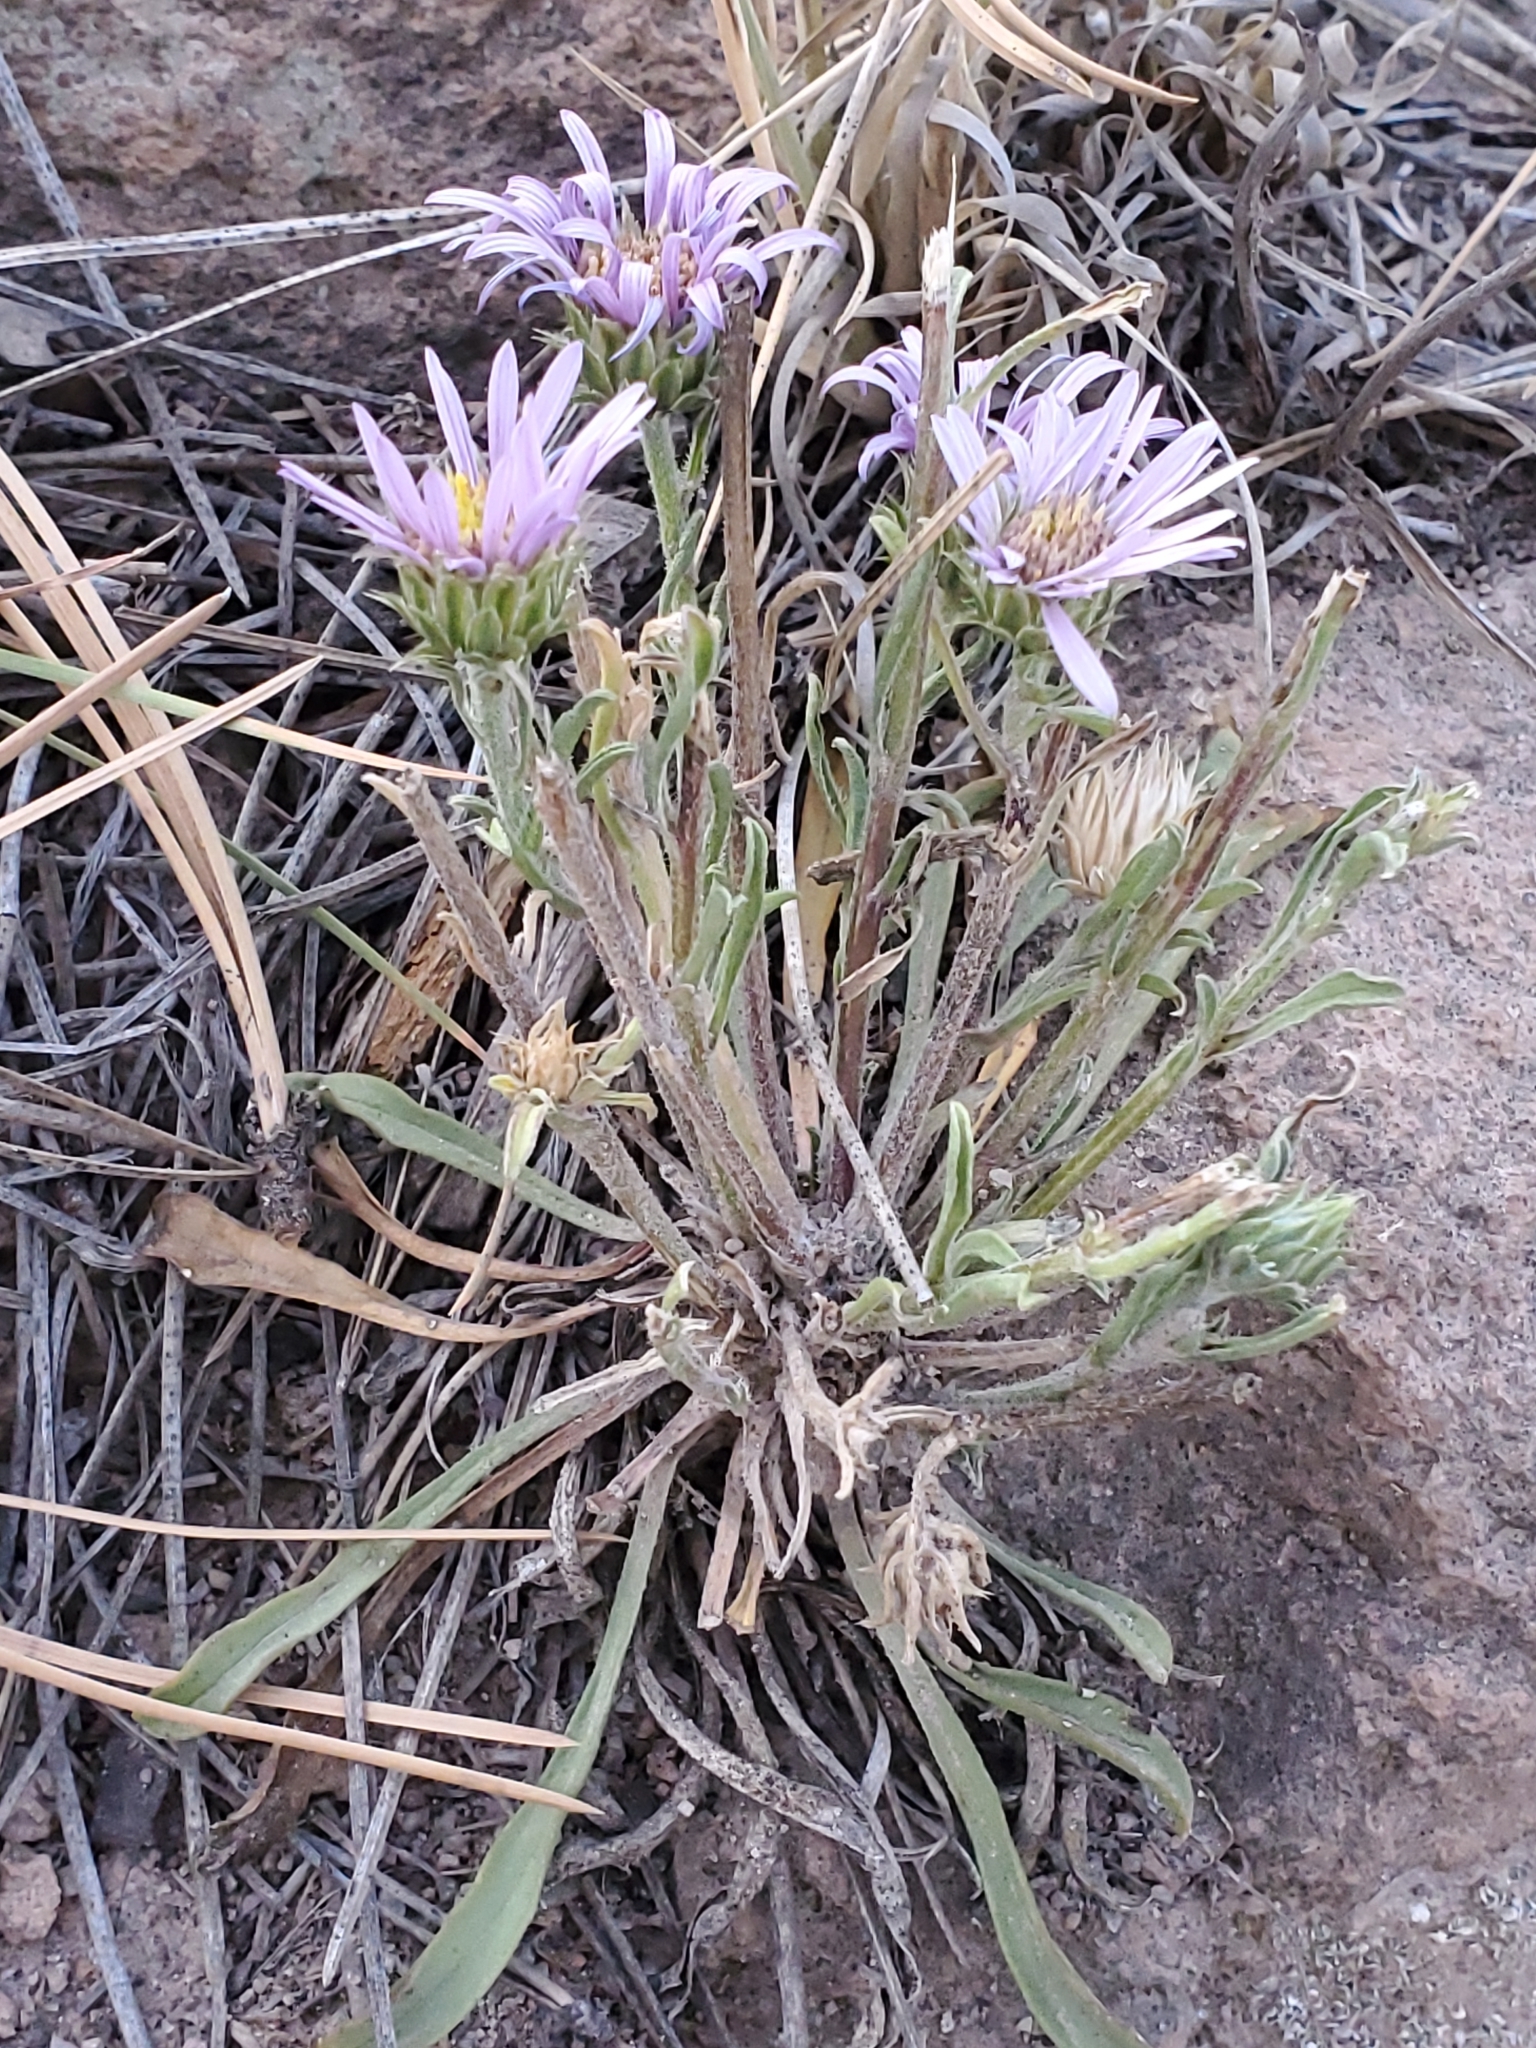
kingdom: Plantae
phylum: Tracheophyta
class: Magnoliopsida
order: Asterales
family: Asteraceae
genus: Townsendia
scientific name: Townsendia eximia
